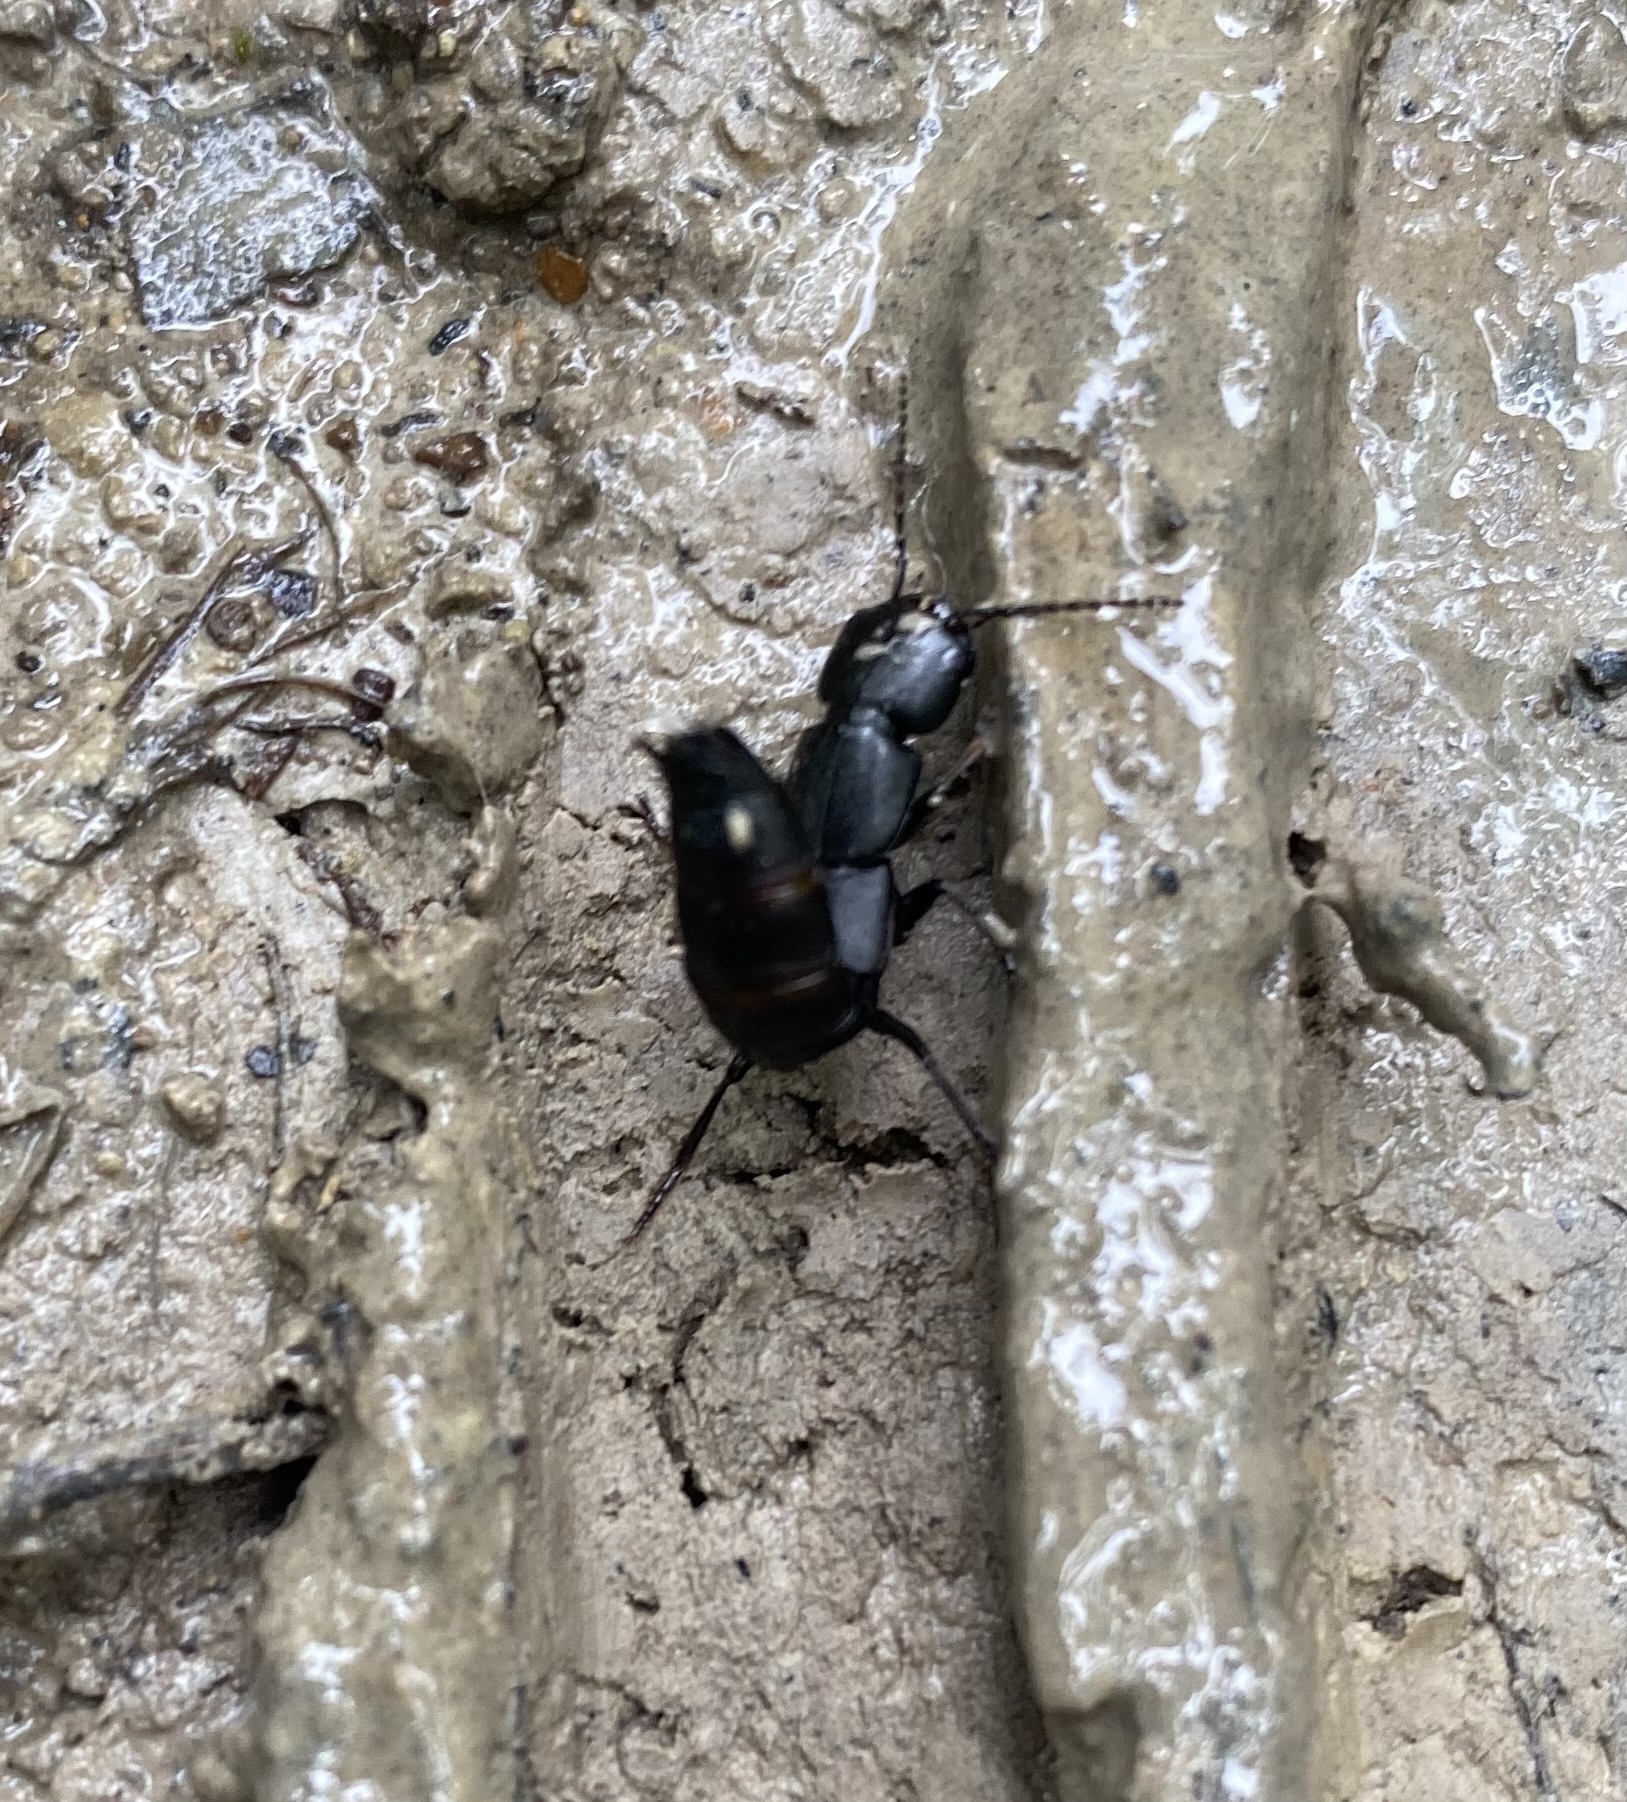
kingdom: Animalia
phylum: Arthropoda
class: Insecta
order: Coleoptera
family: Staphylinidae
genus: Ocypus
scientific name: Ocypus nitens
